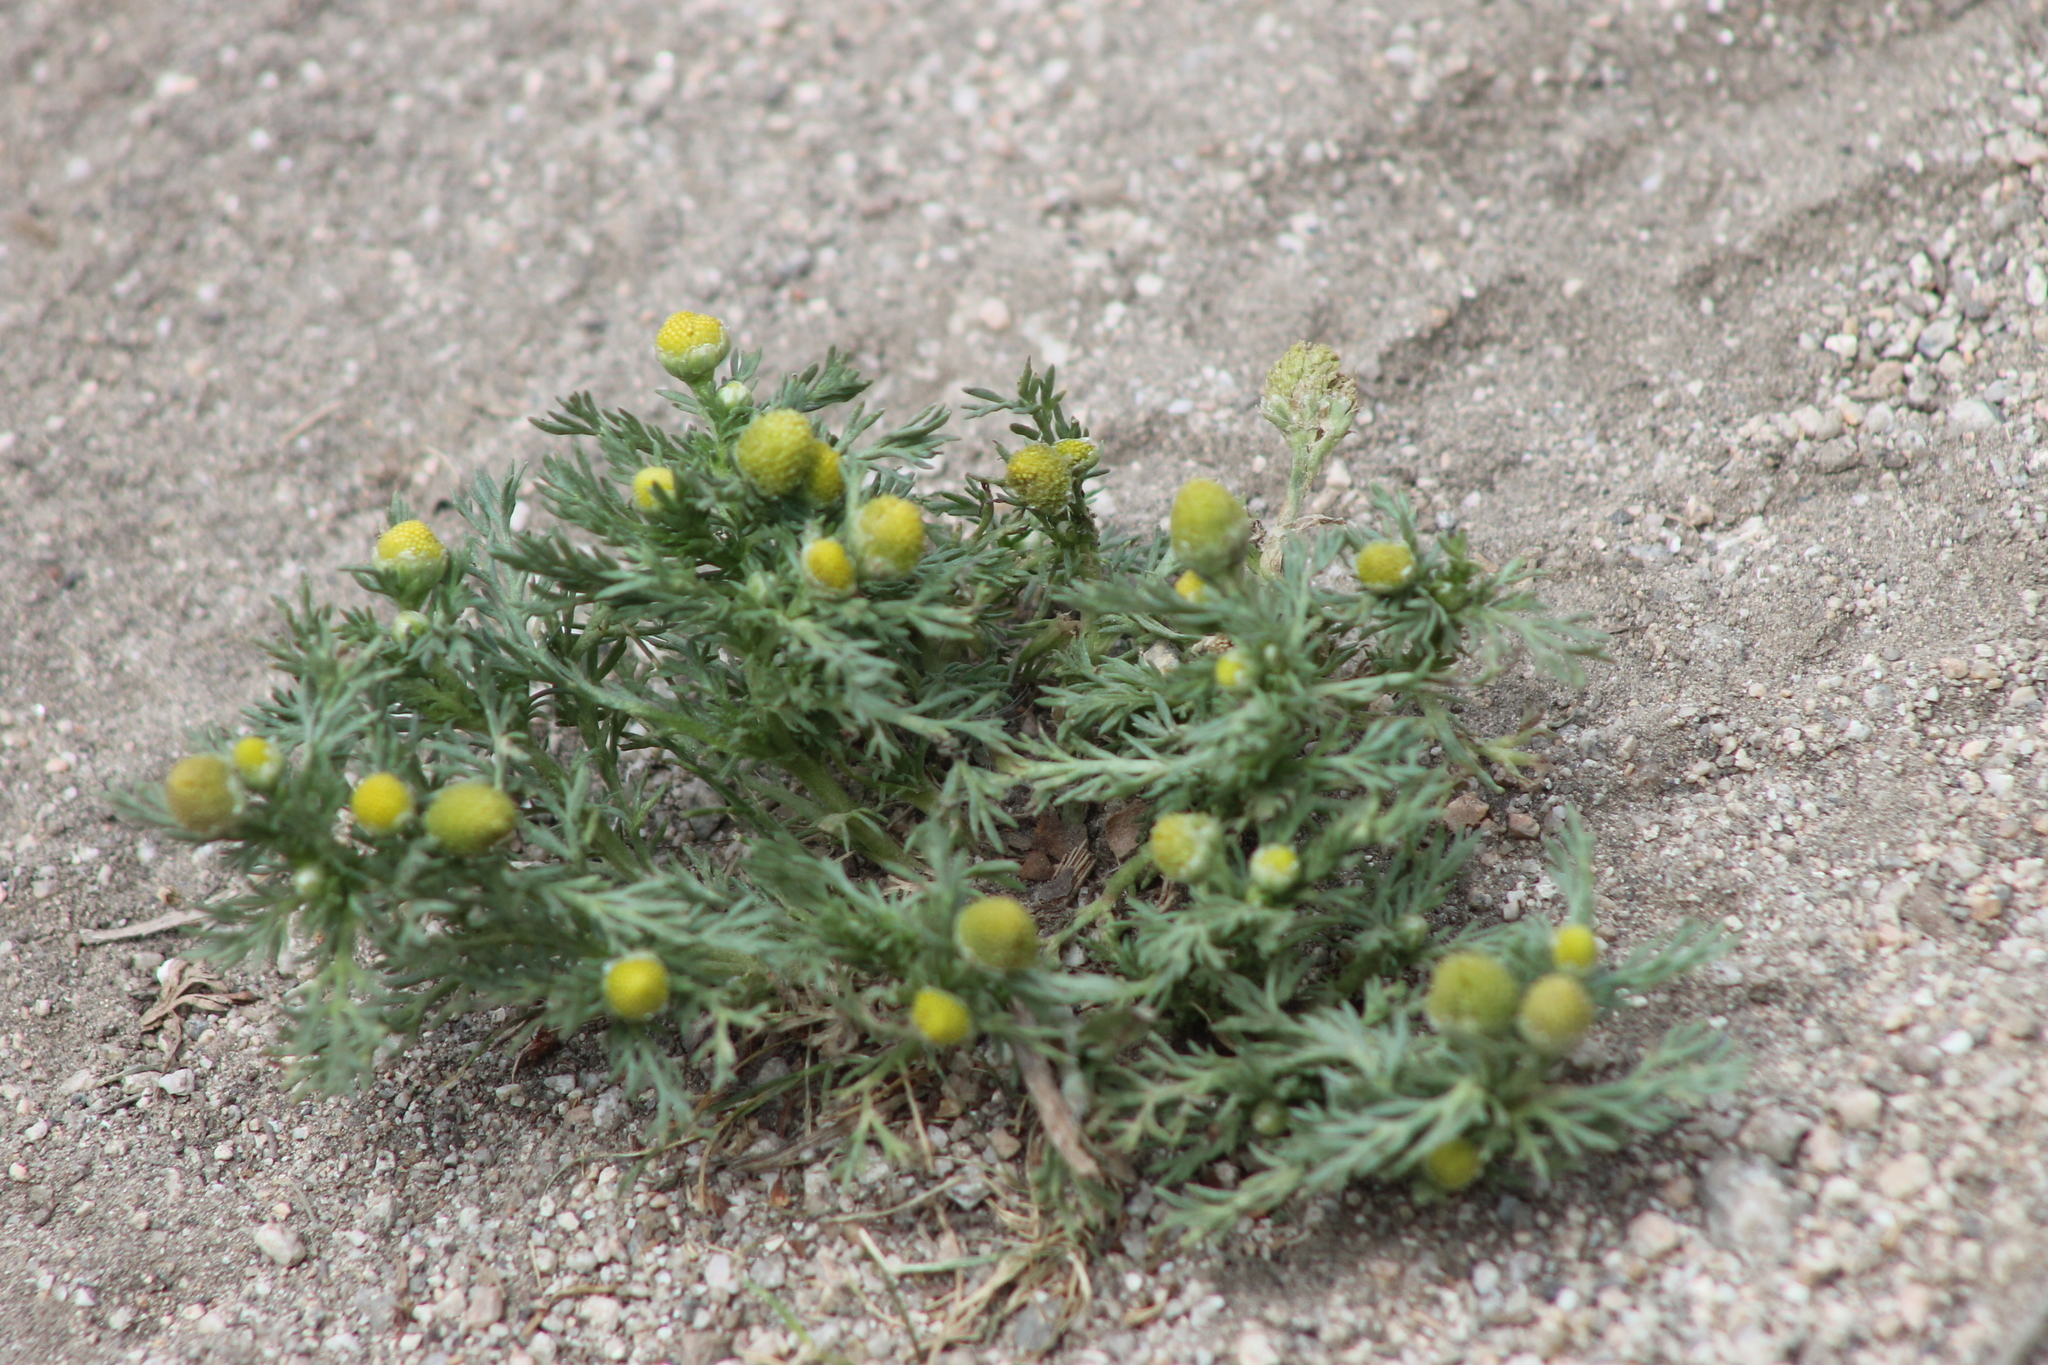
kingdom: Plantae
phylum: Tracheophyta
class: Magnoliopsida
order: Asterales
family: Asteraceae
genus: Matricaria
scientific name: Matricaria discoidea
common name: Disc mayweed
